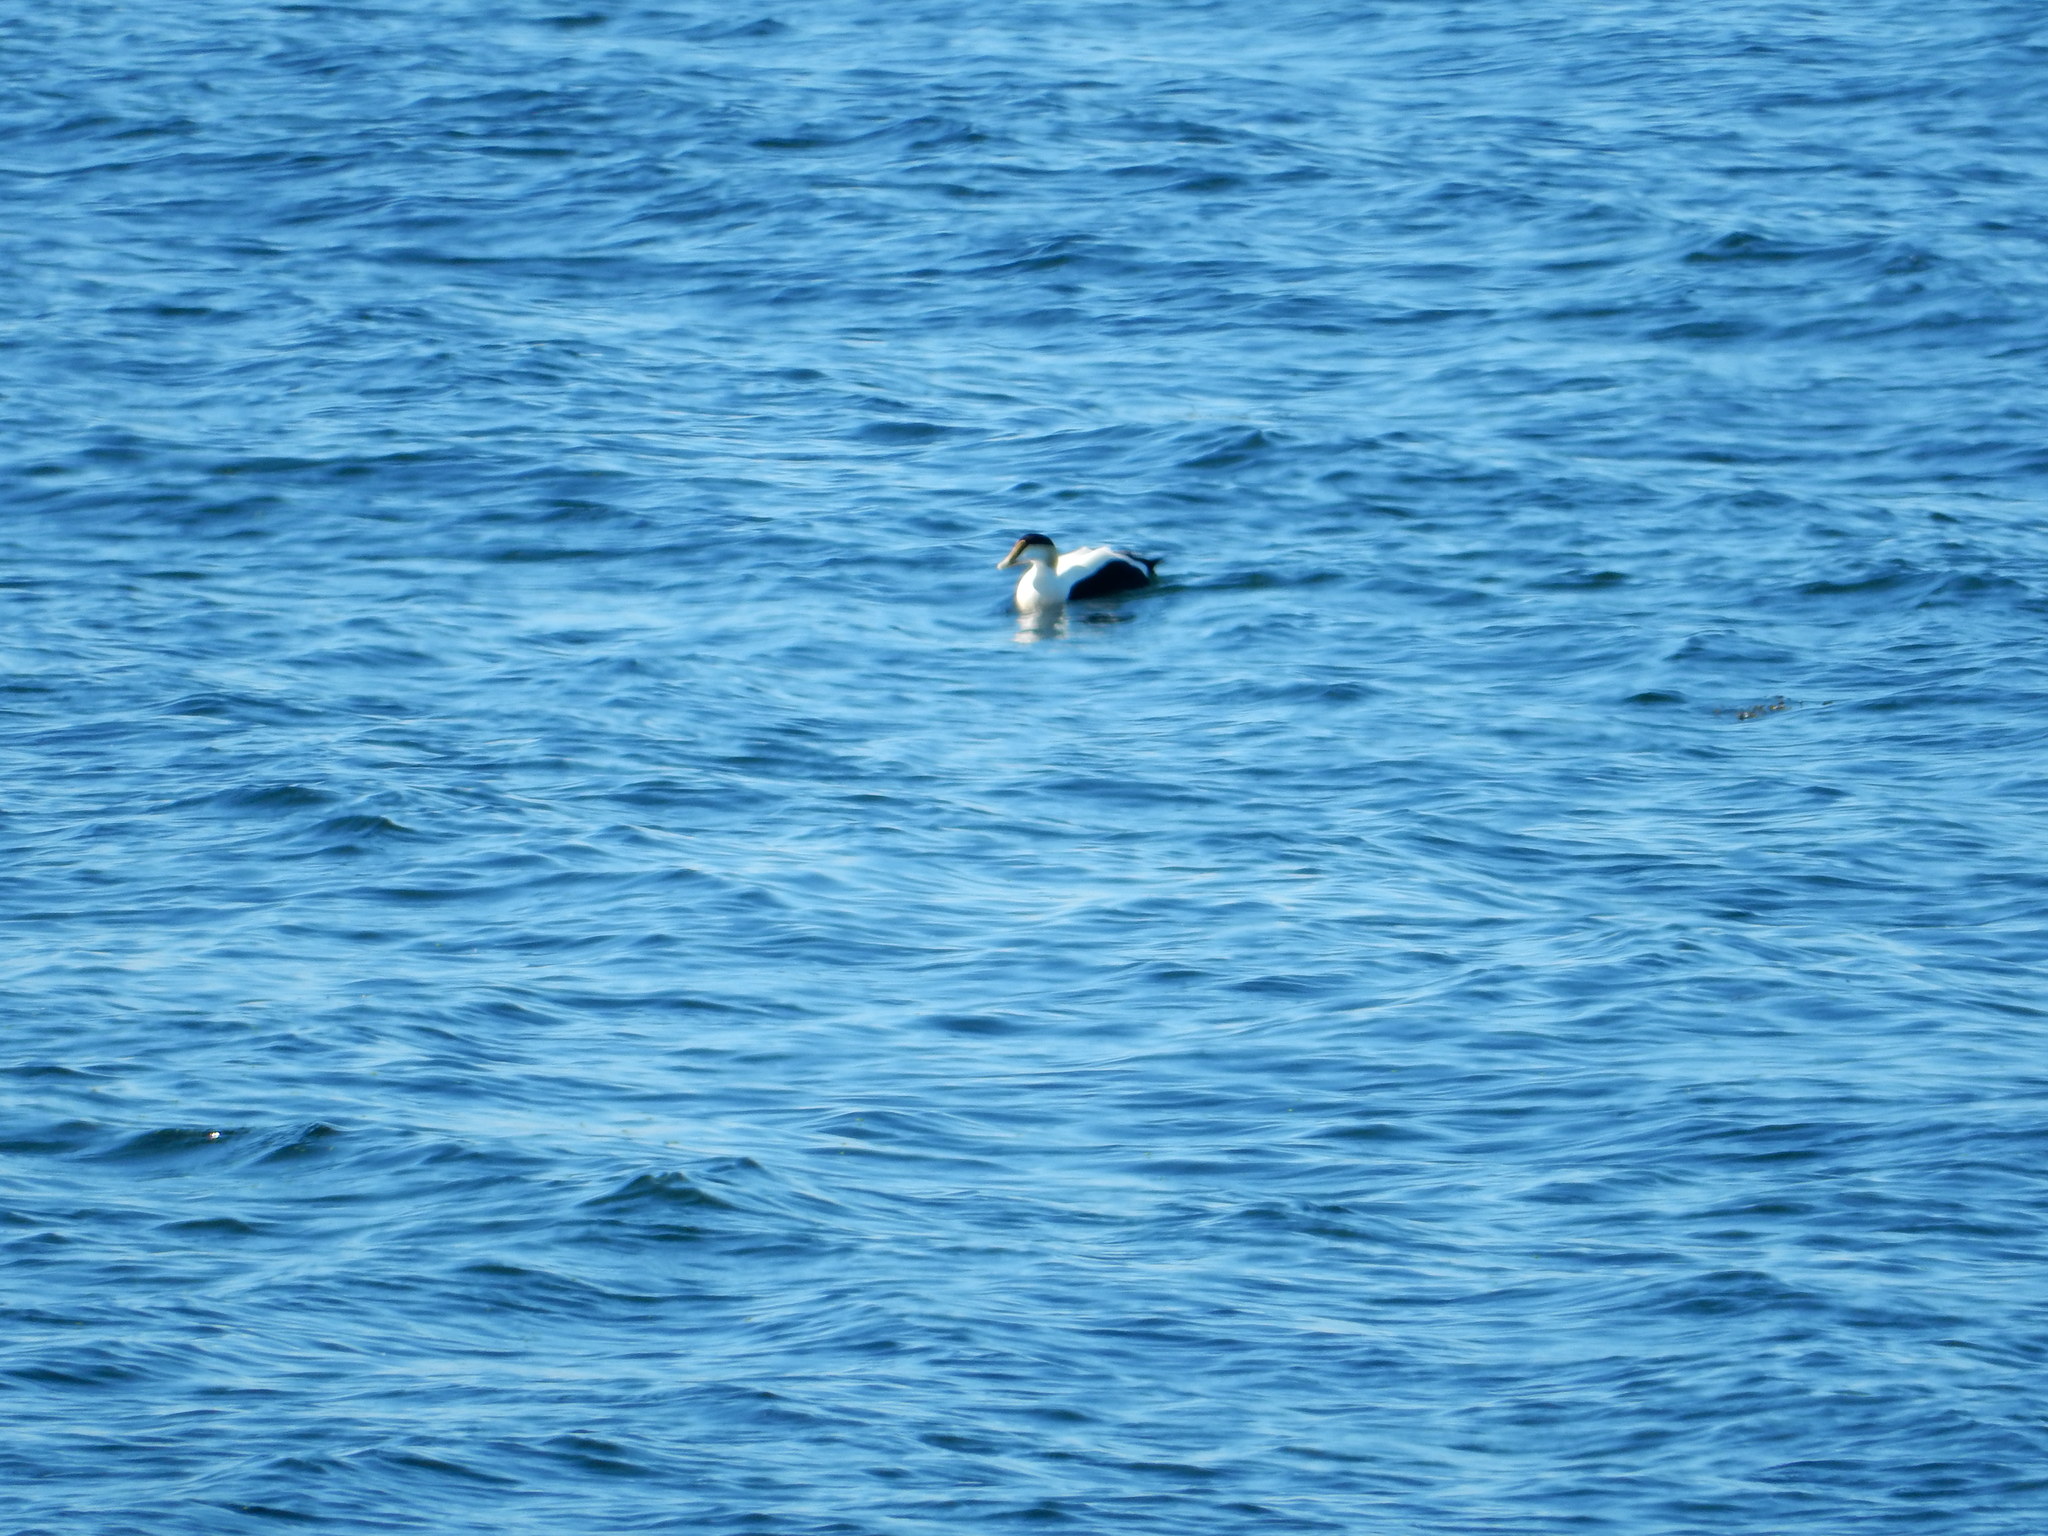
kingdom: Animalia
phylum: Chordata
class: Aves
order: Anseriformes
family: Anatidae
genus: Somateria
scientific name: Somateria mollissima
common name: Common eider
